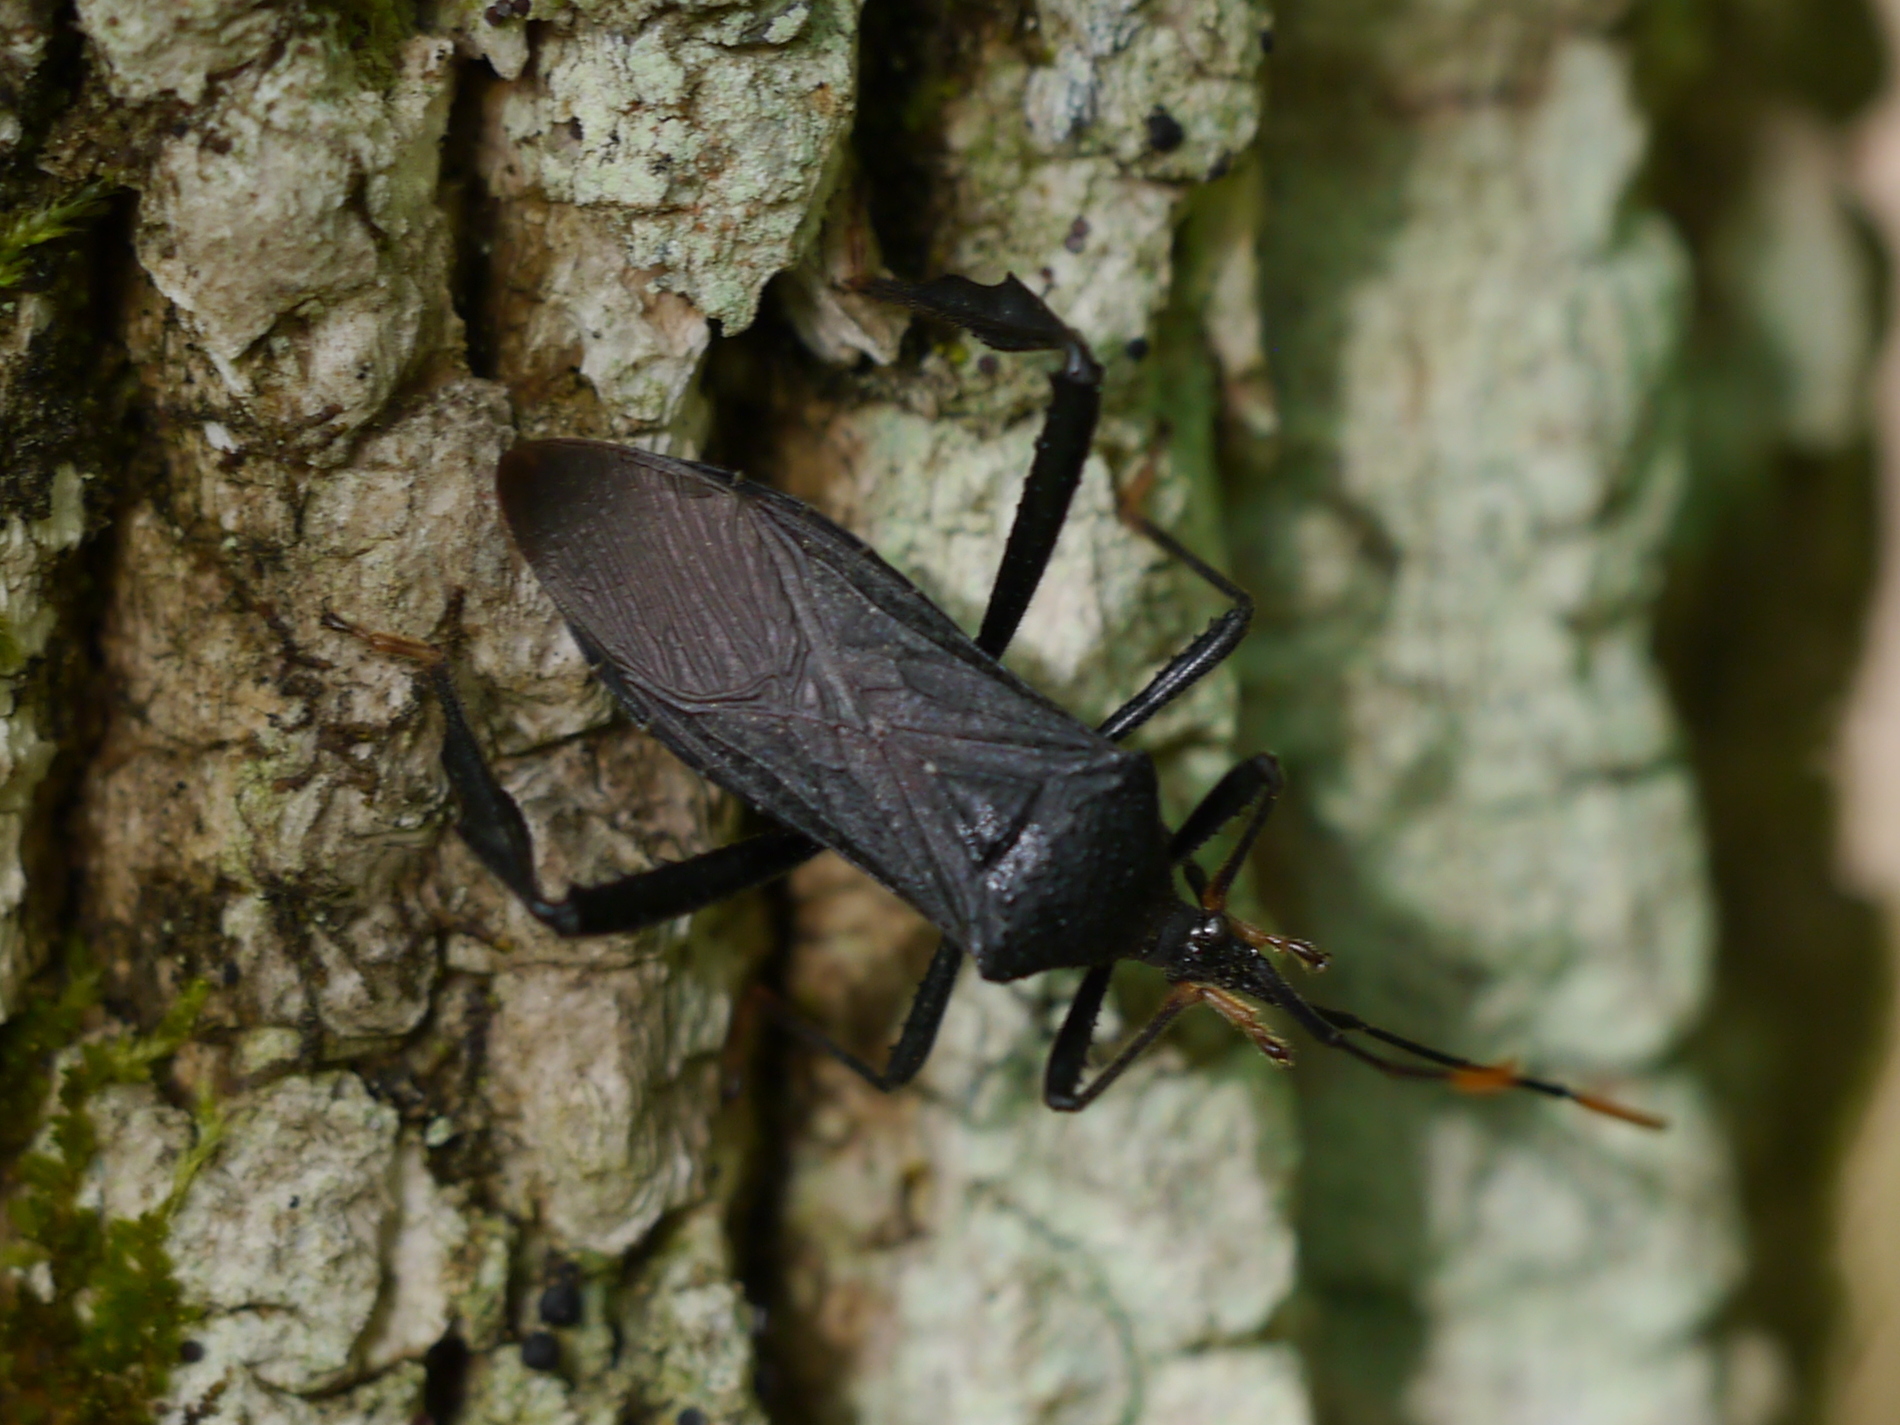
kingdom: Animalia
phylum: Arthropoda
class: Insecta
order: Hemiptera
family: Coreidae
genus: Acanthocephala
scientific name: Acanthocephala terminalis
